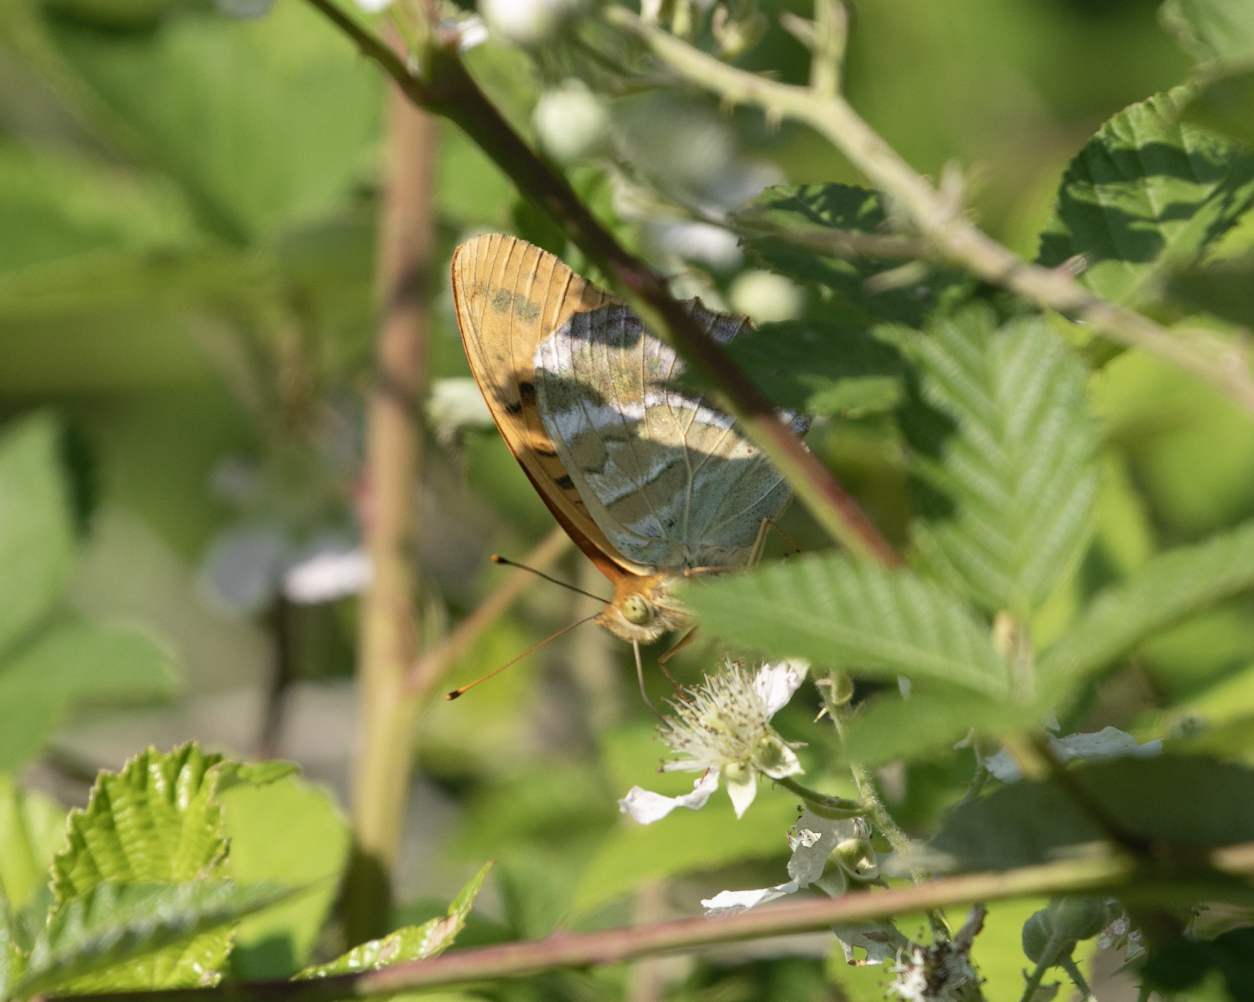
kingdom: Animalia
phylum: Arthropoda
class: Insecta
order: Lepidoptera
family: Nymphalidae
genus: Argynnis
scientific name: Argynnis paphia
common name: Silver-washed fritillary
